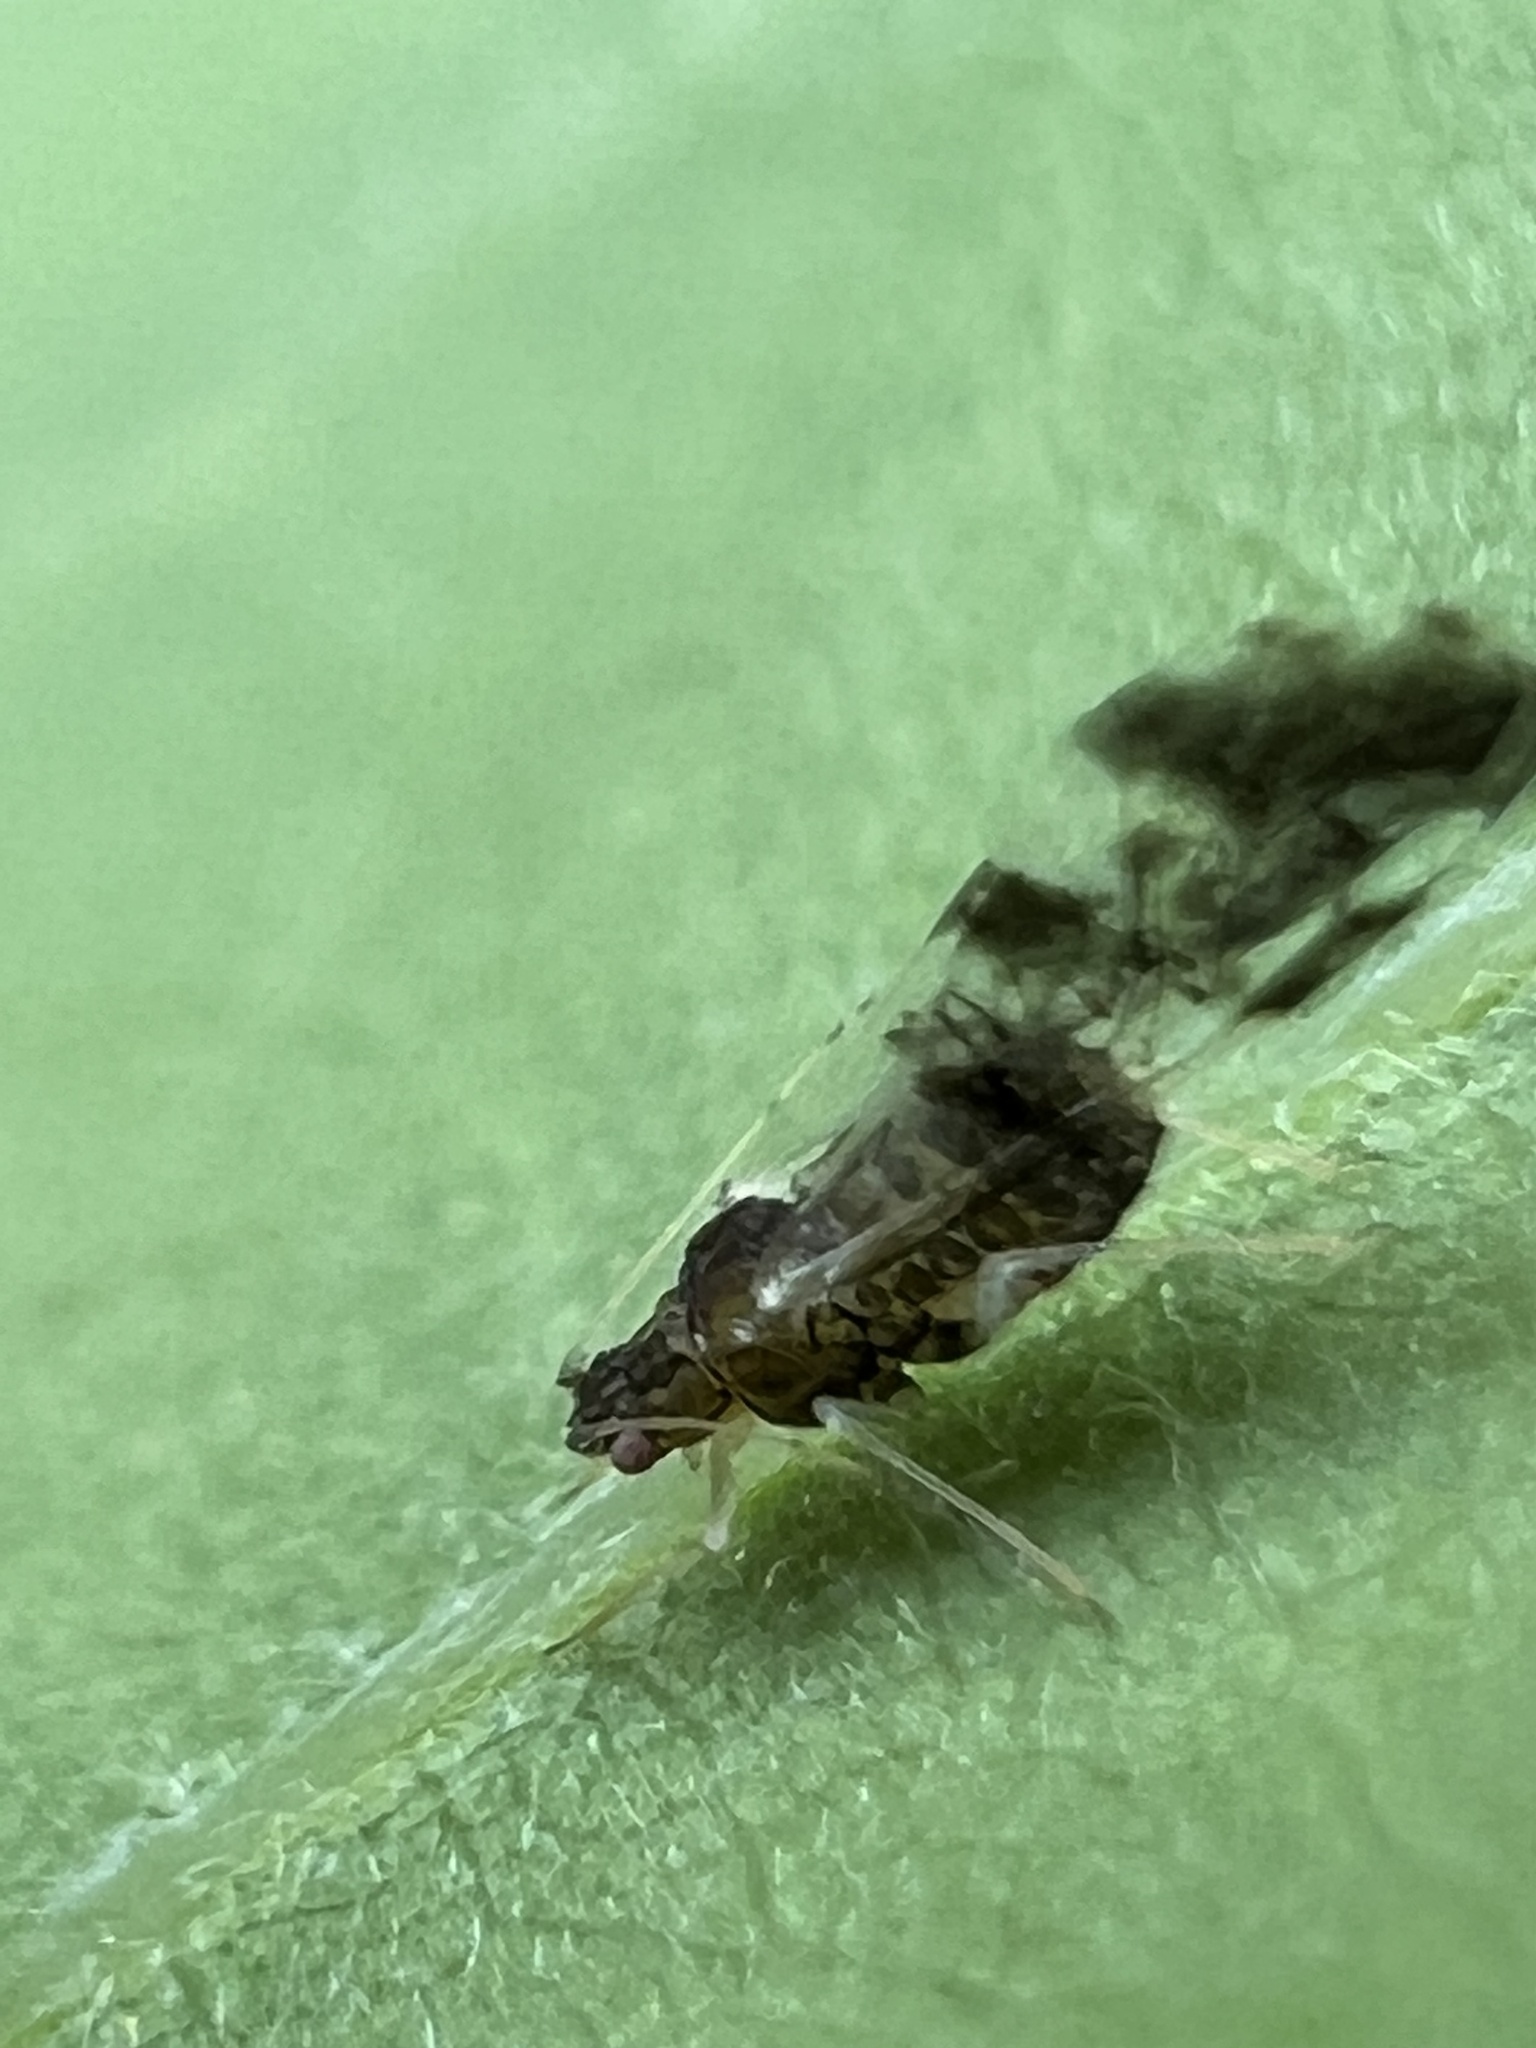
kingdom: Animalia
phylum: Arthropoda
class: Insecta
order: Hemiptera
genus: Neomyzocallis
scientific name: Neomyzocallis
